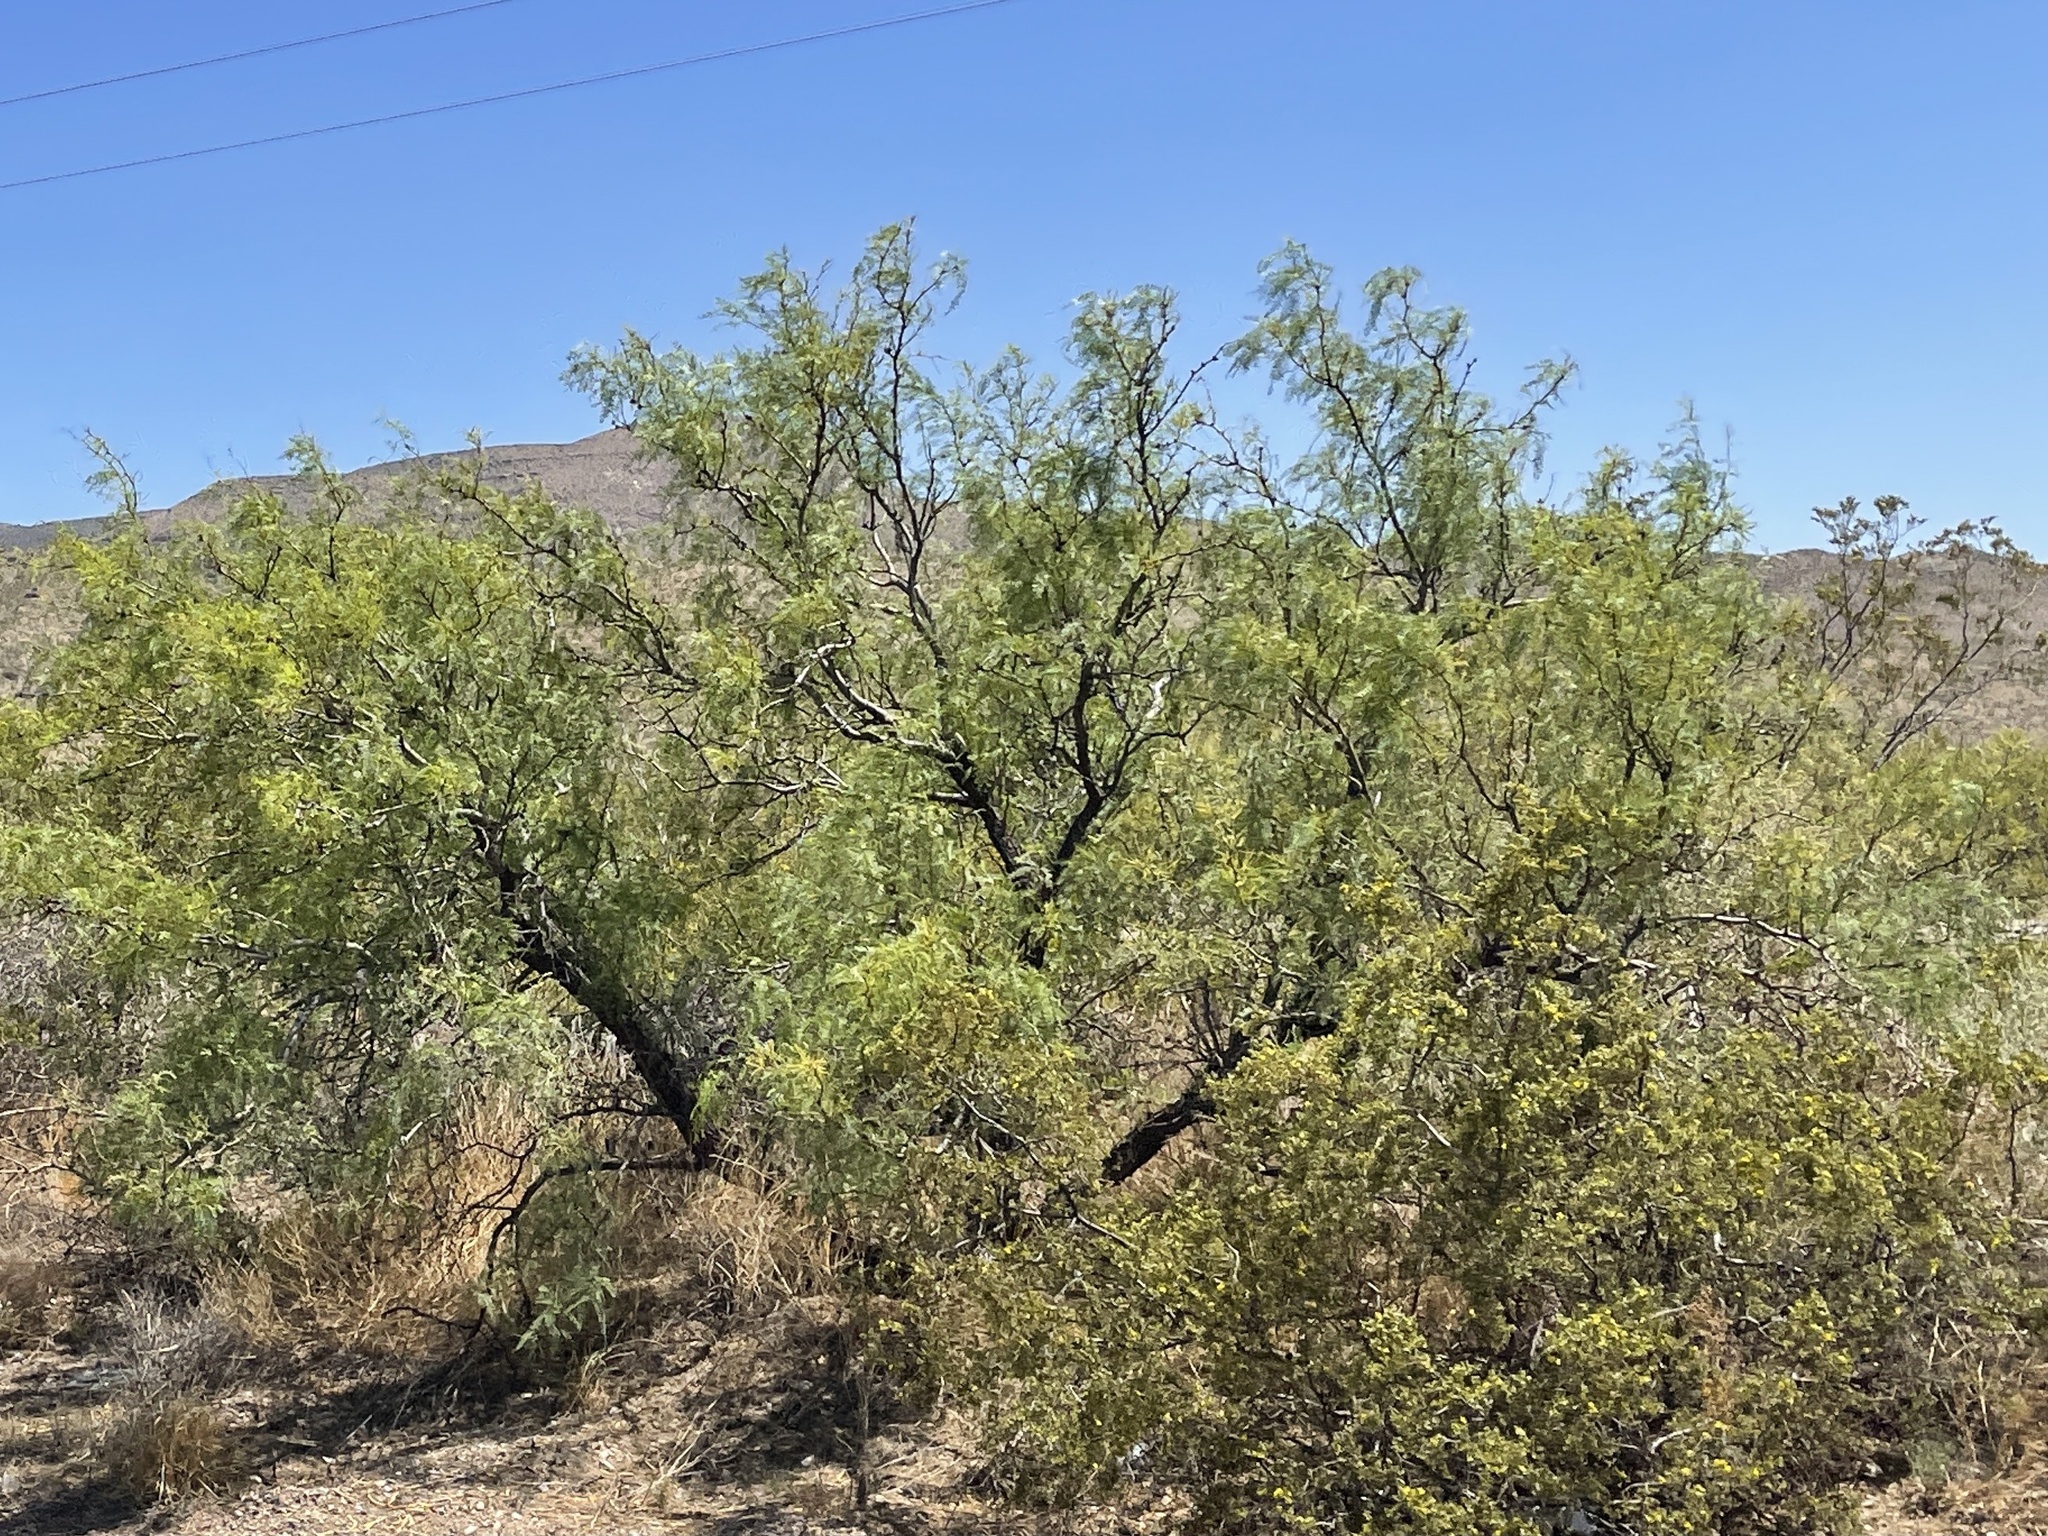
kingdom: Plantae
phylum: Tracheophyta
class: Magnoliopsida
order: Fabales
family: Fabaceae
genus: Prosopis
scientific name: Prosopis glandulosa
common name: Honey mesquite
